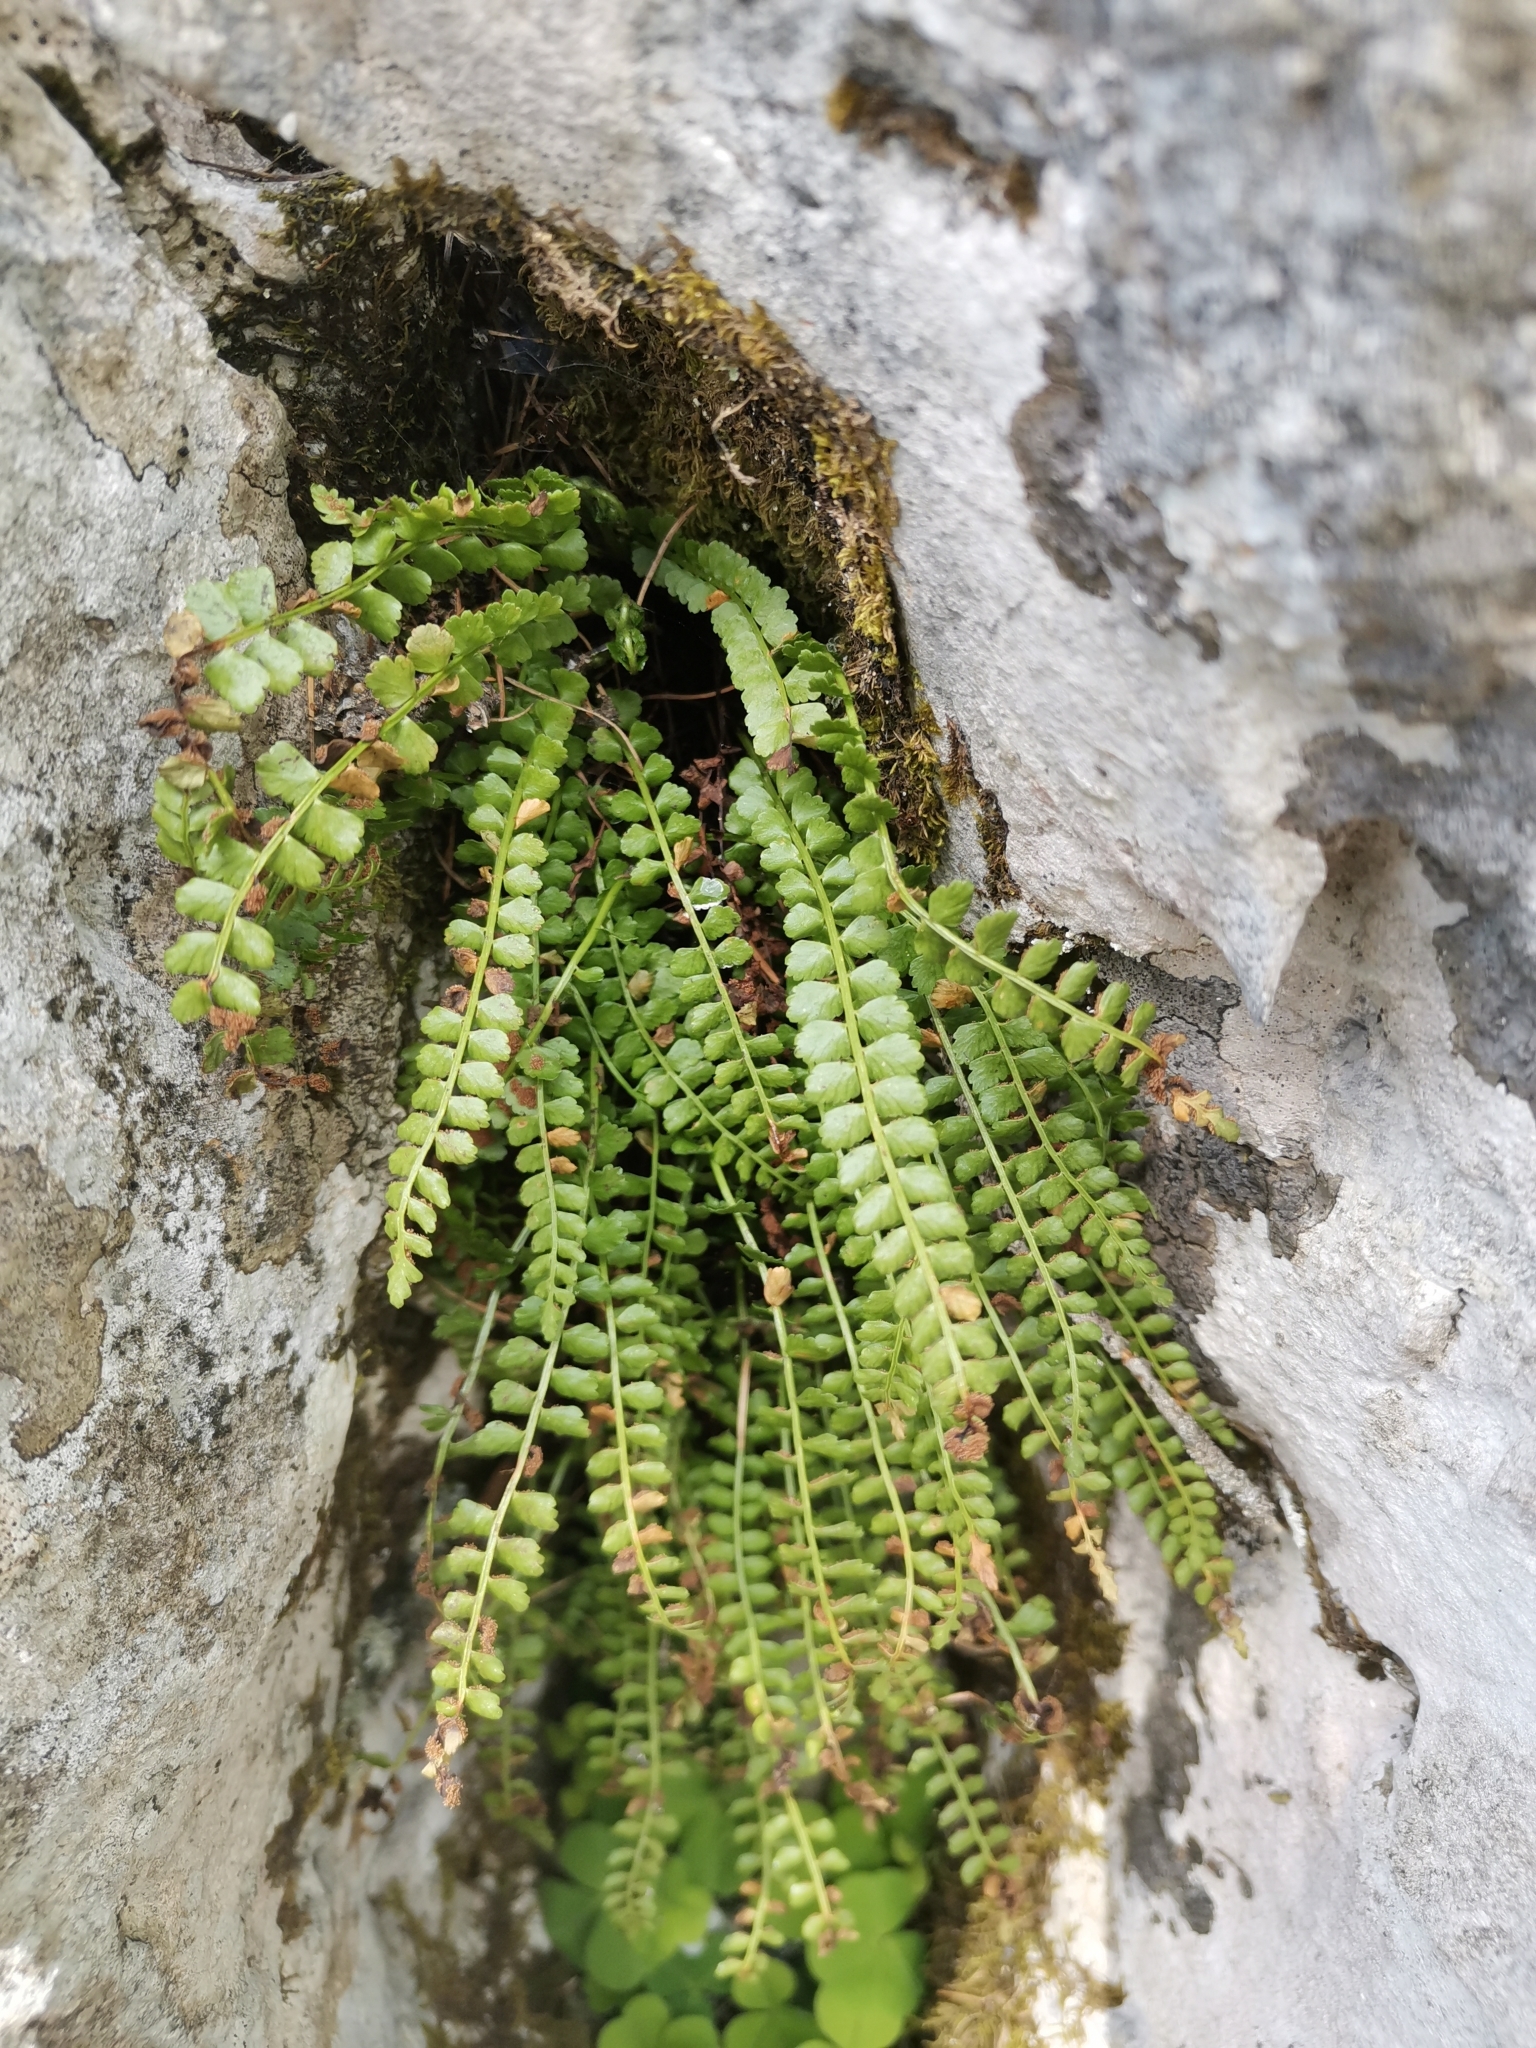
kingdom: Plantae
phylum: Tracheophyta
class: Polypodiopsida
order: Polypodiales
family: Aspleniaceae
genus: Asplenium
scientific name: Asplenium viride
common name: Green spleenwort
